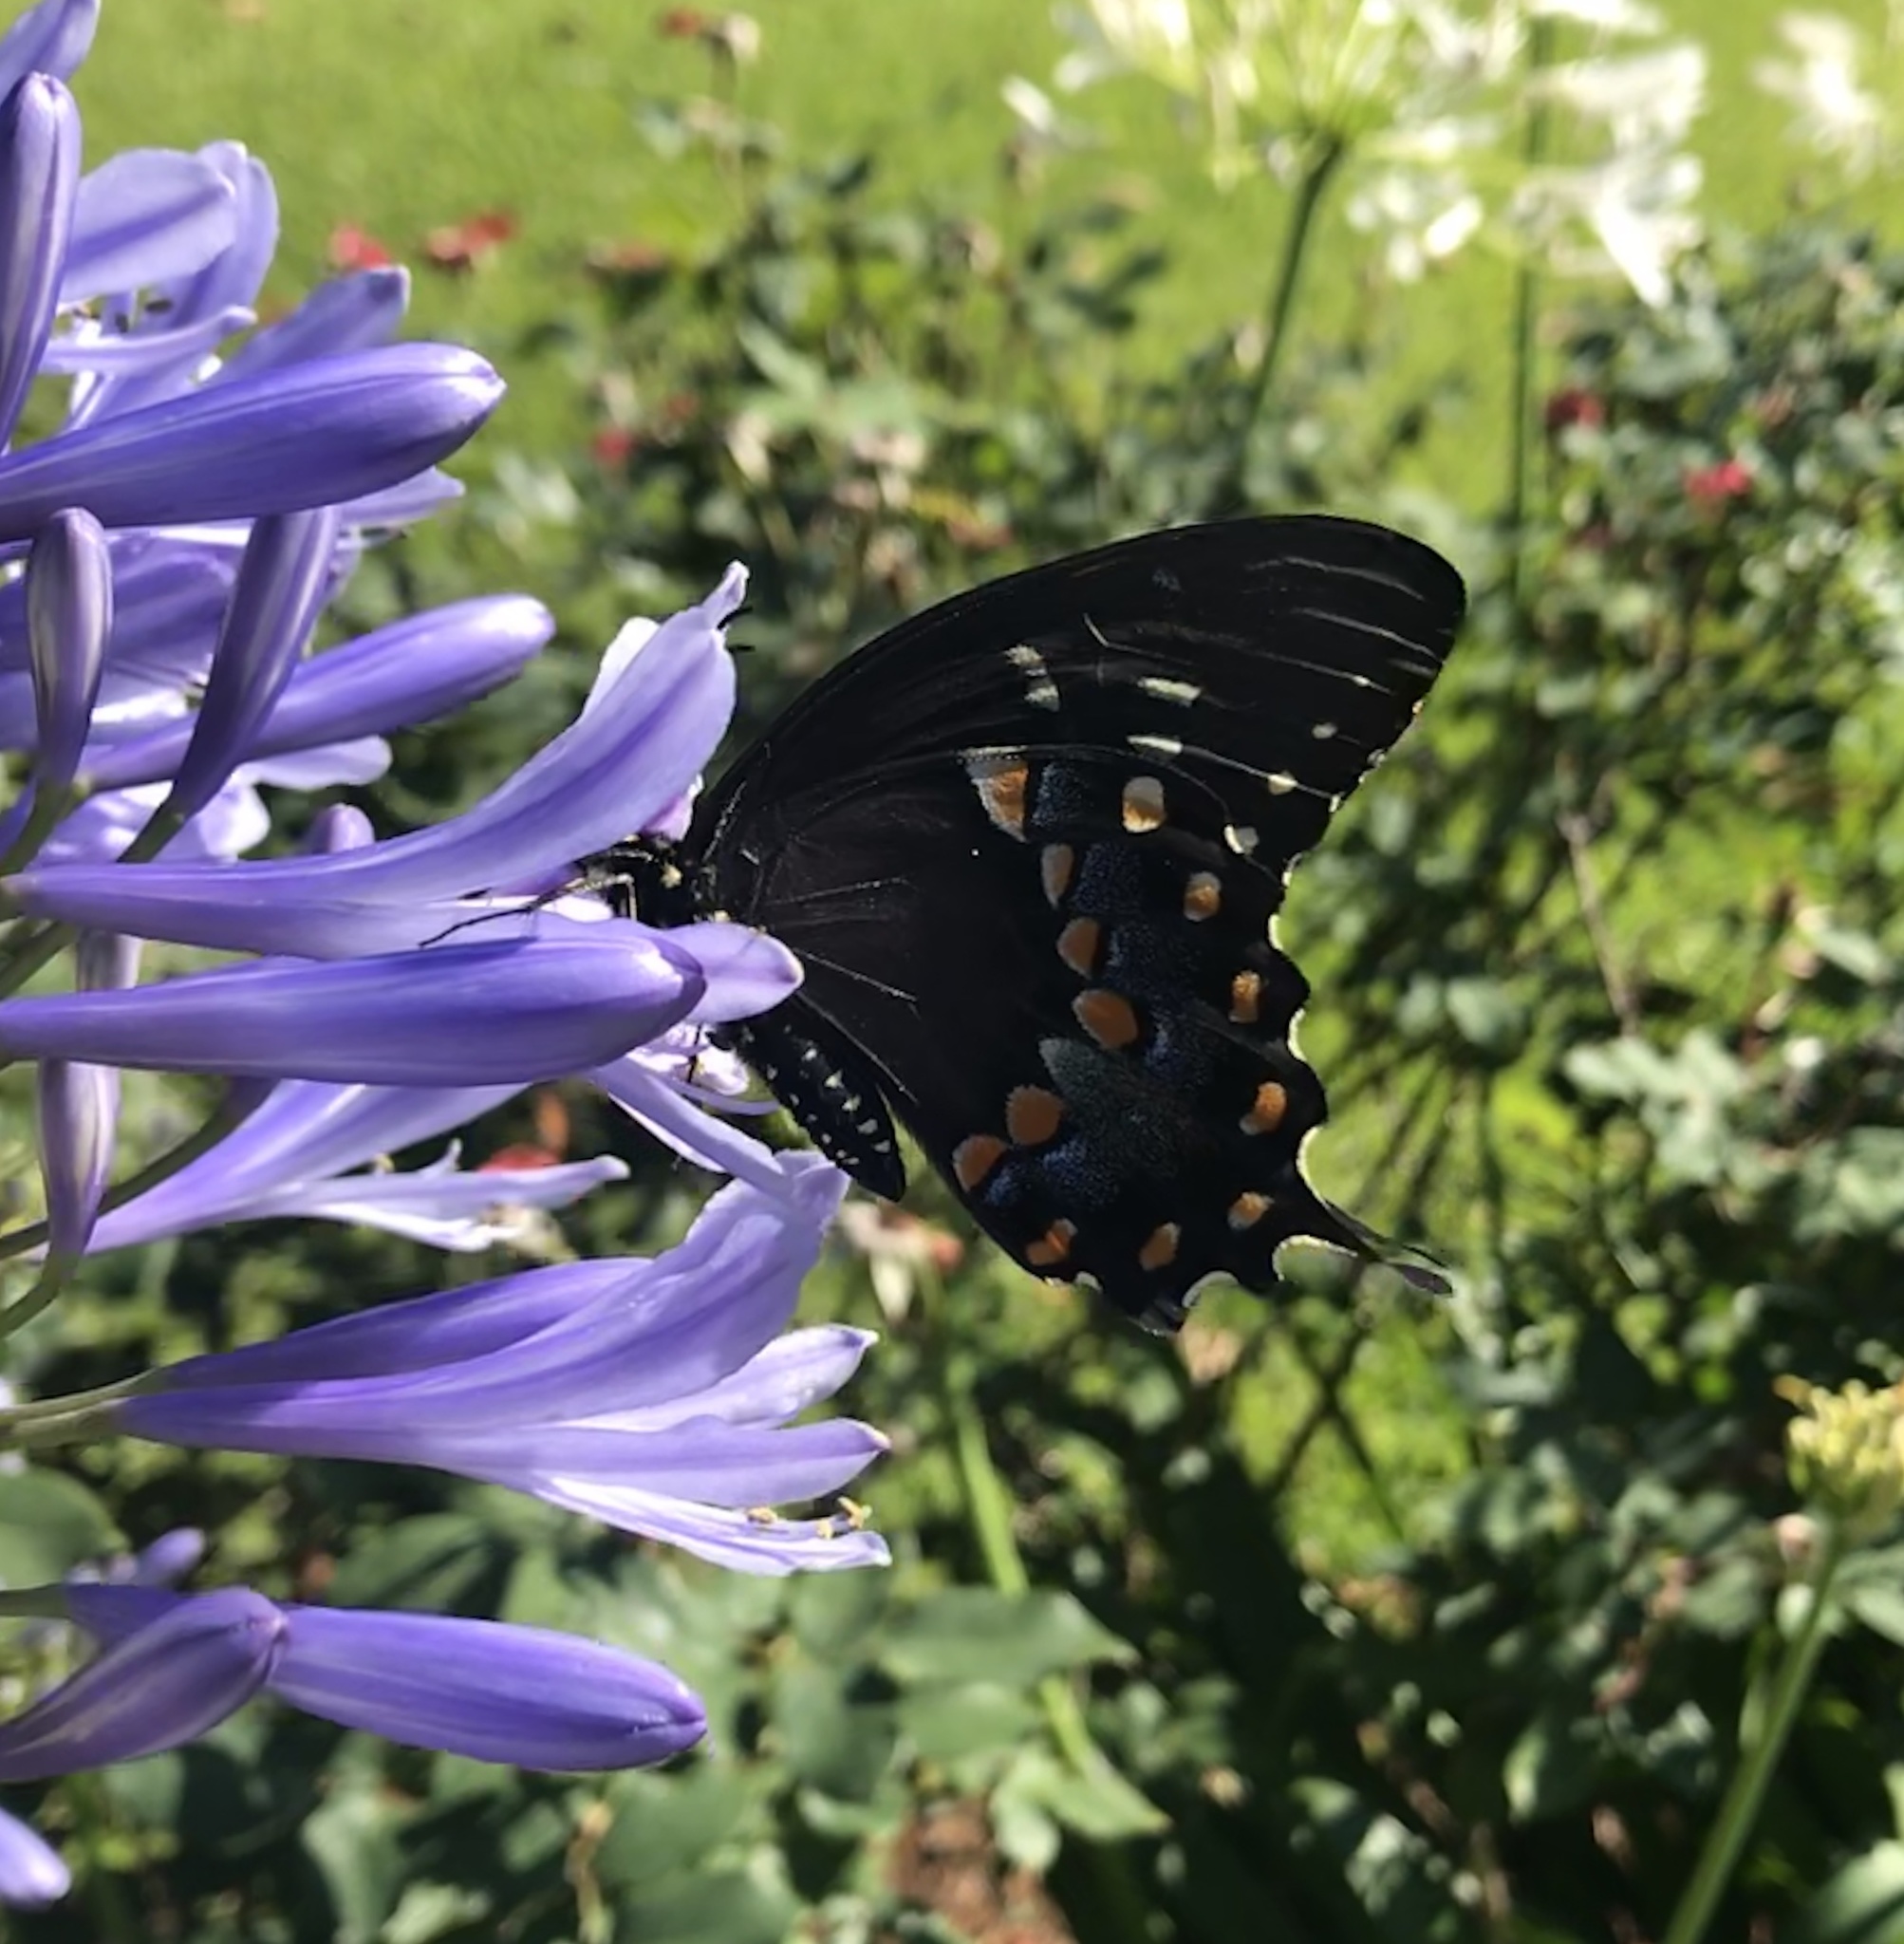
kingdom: Animalia
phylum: Arthropoda
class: Insecta
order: Lepidoptera
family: Papilionidae
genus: Papilio
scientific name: Papilio troilus
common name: Spicebush swallowtail
